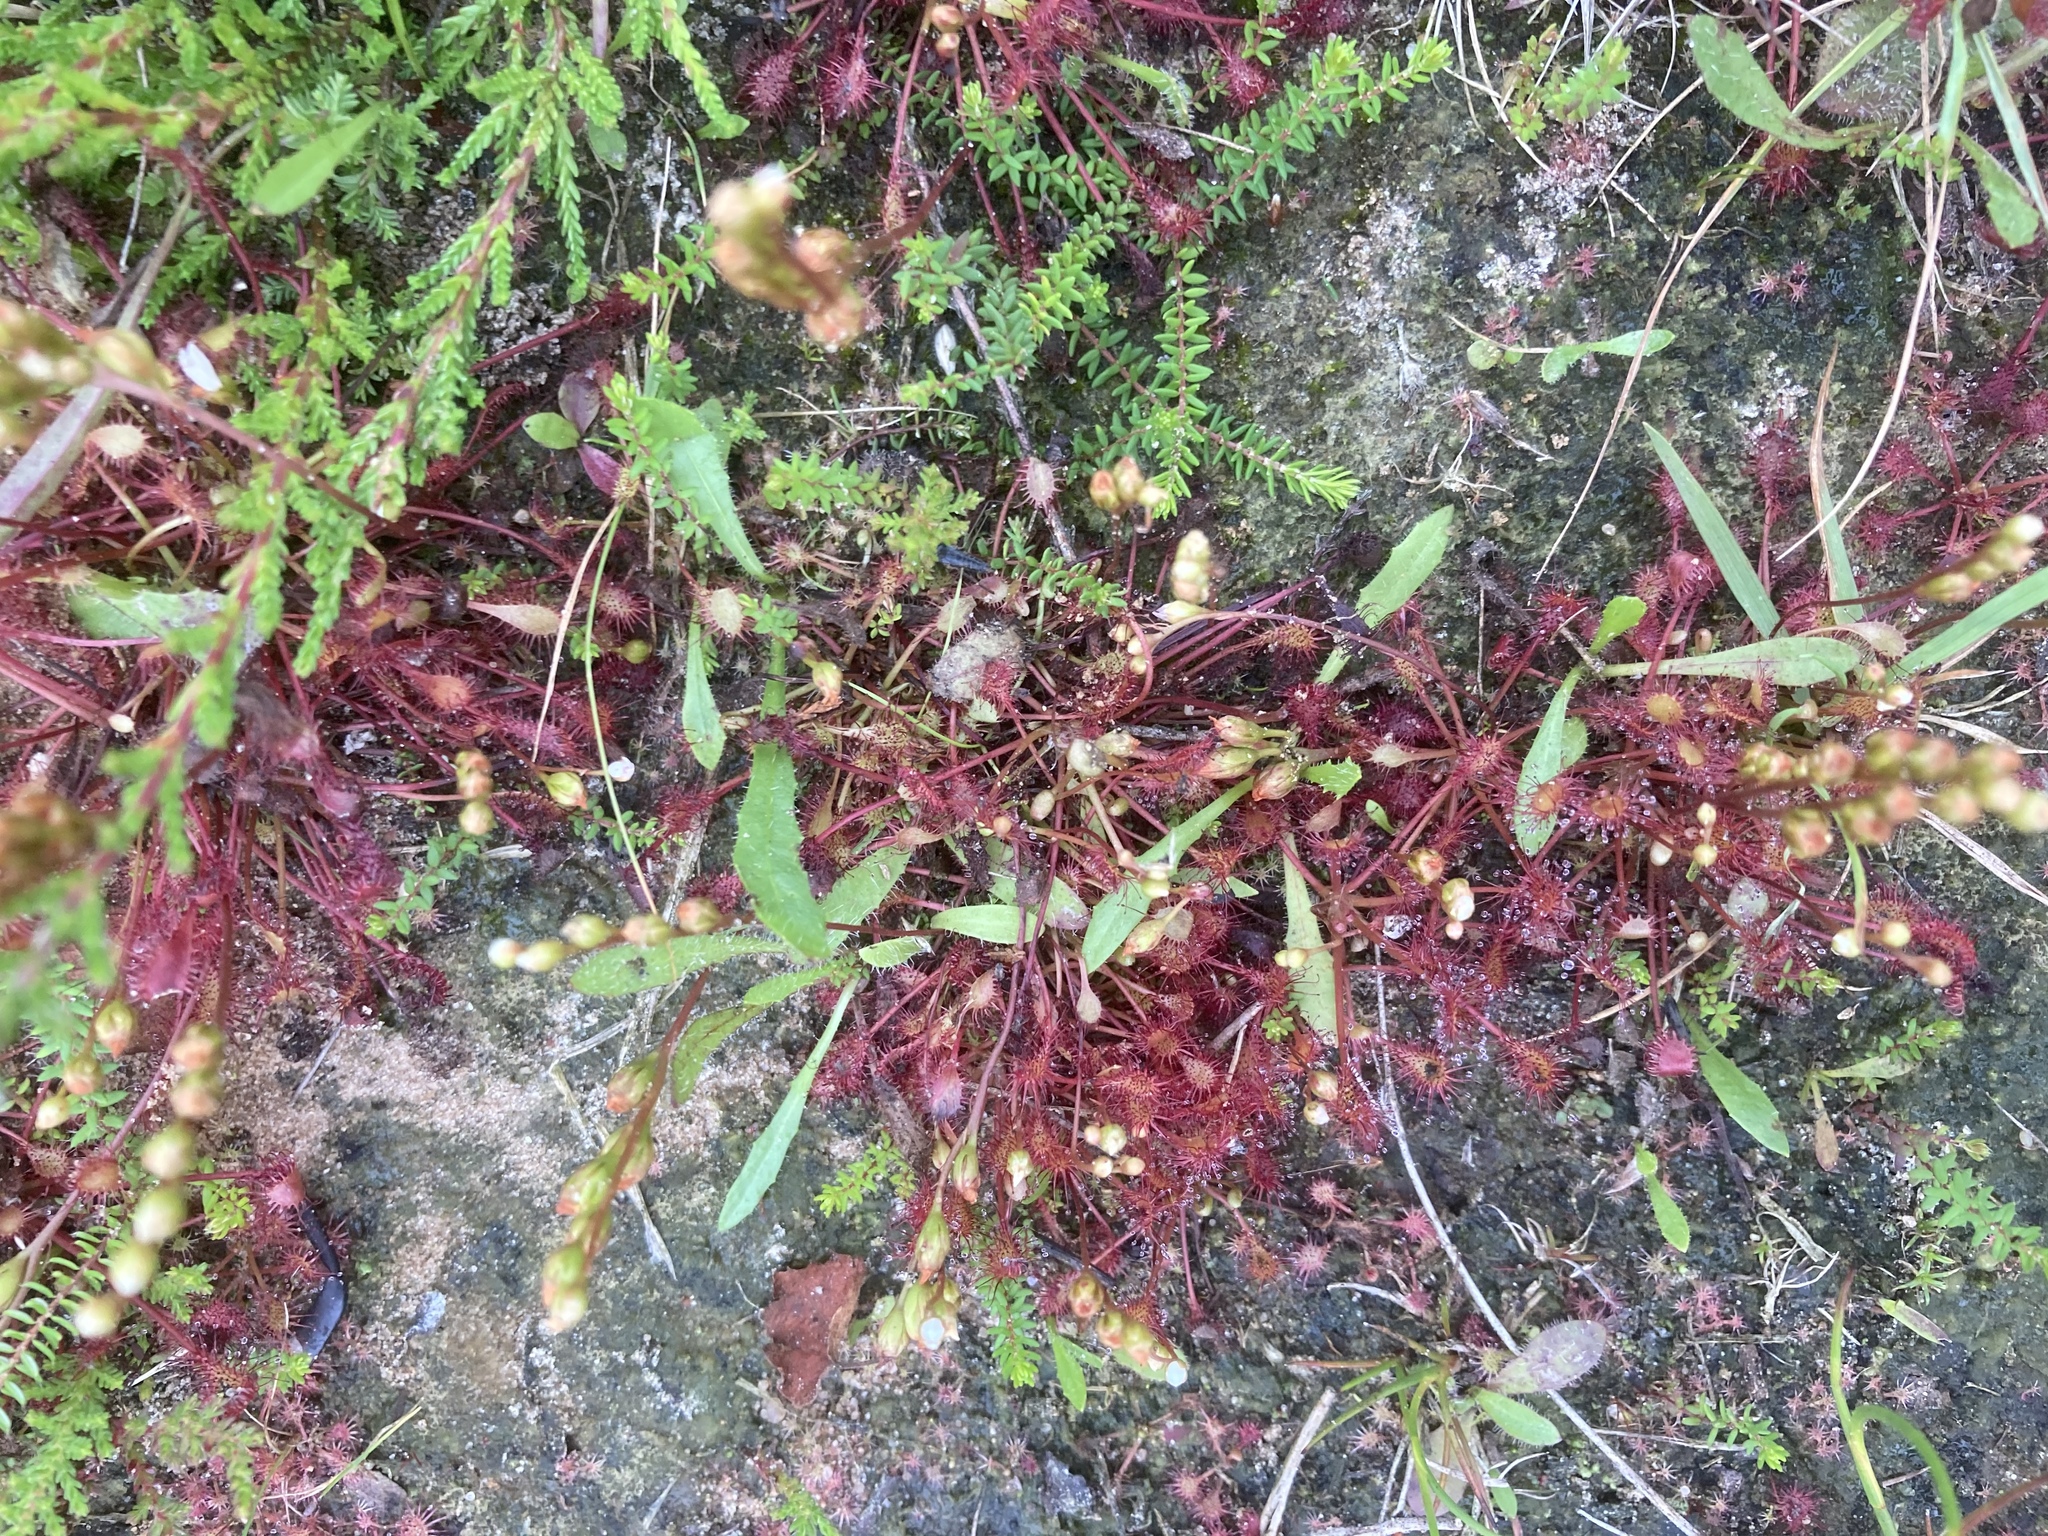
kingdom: Plantae
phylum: Tracheophyta
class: Magnoliopsida
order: Caryophyllales
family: Droseraceae
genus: Drosera
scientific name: Drosera intermedia
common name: Oblong-leaved sundew
